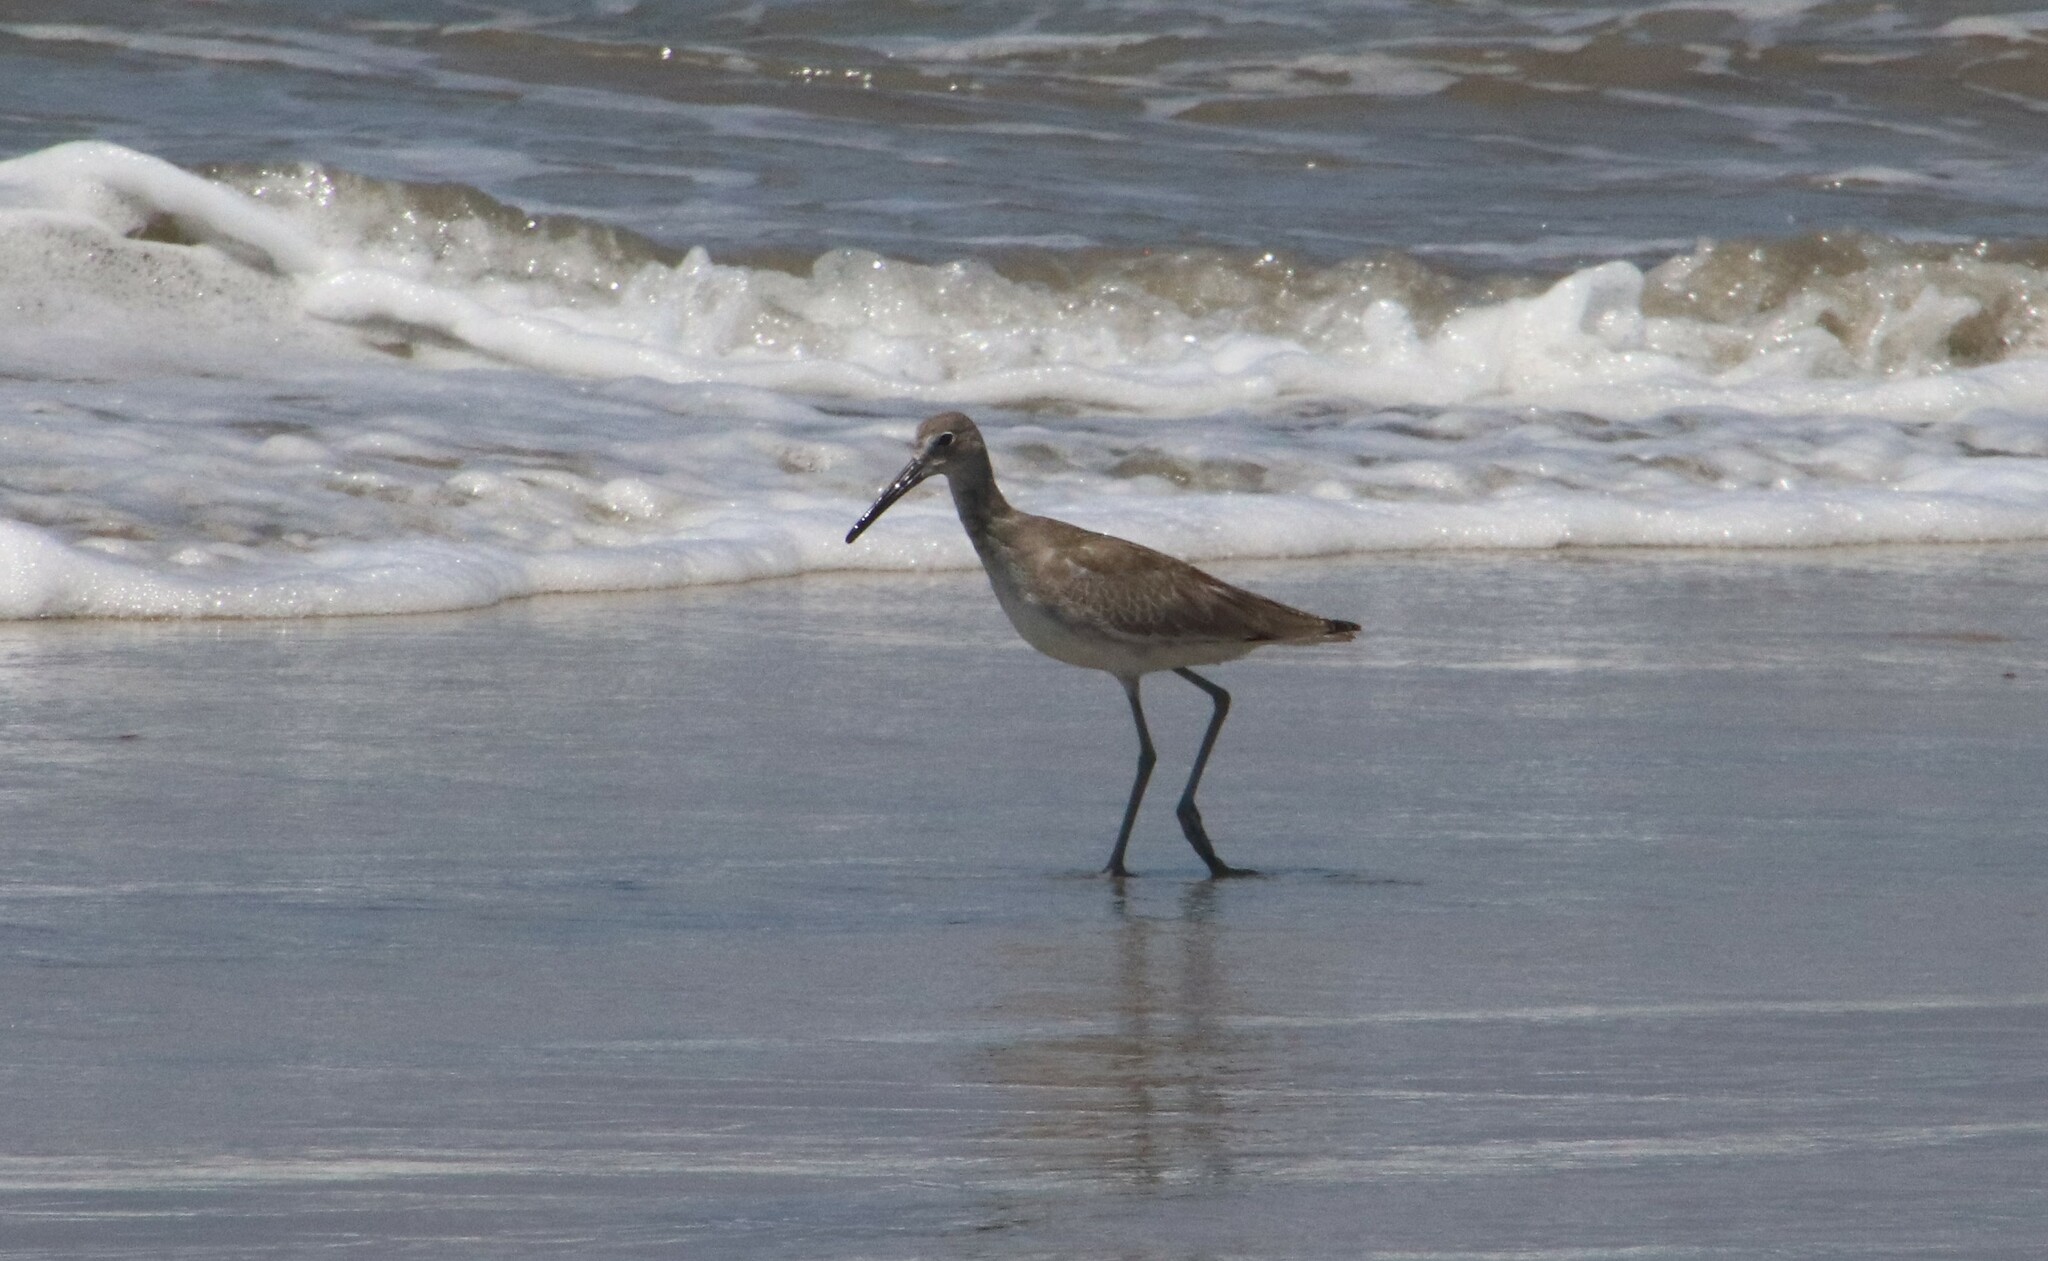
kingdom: Animalia
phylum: Chordata
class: Aves
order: Charadriiformes
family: Scolopacidae
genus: Tringa
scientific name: Tringa semipalmata
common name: Willet
